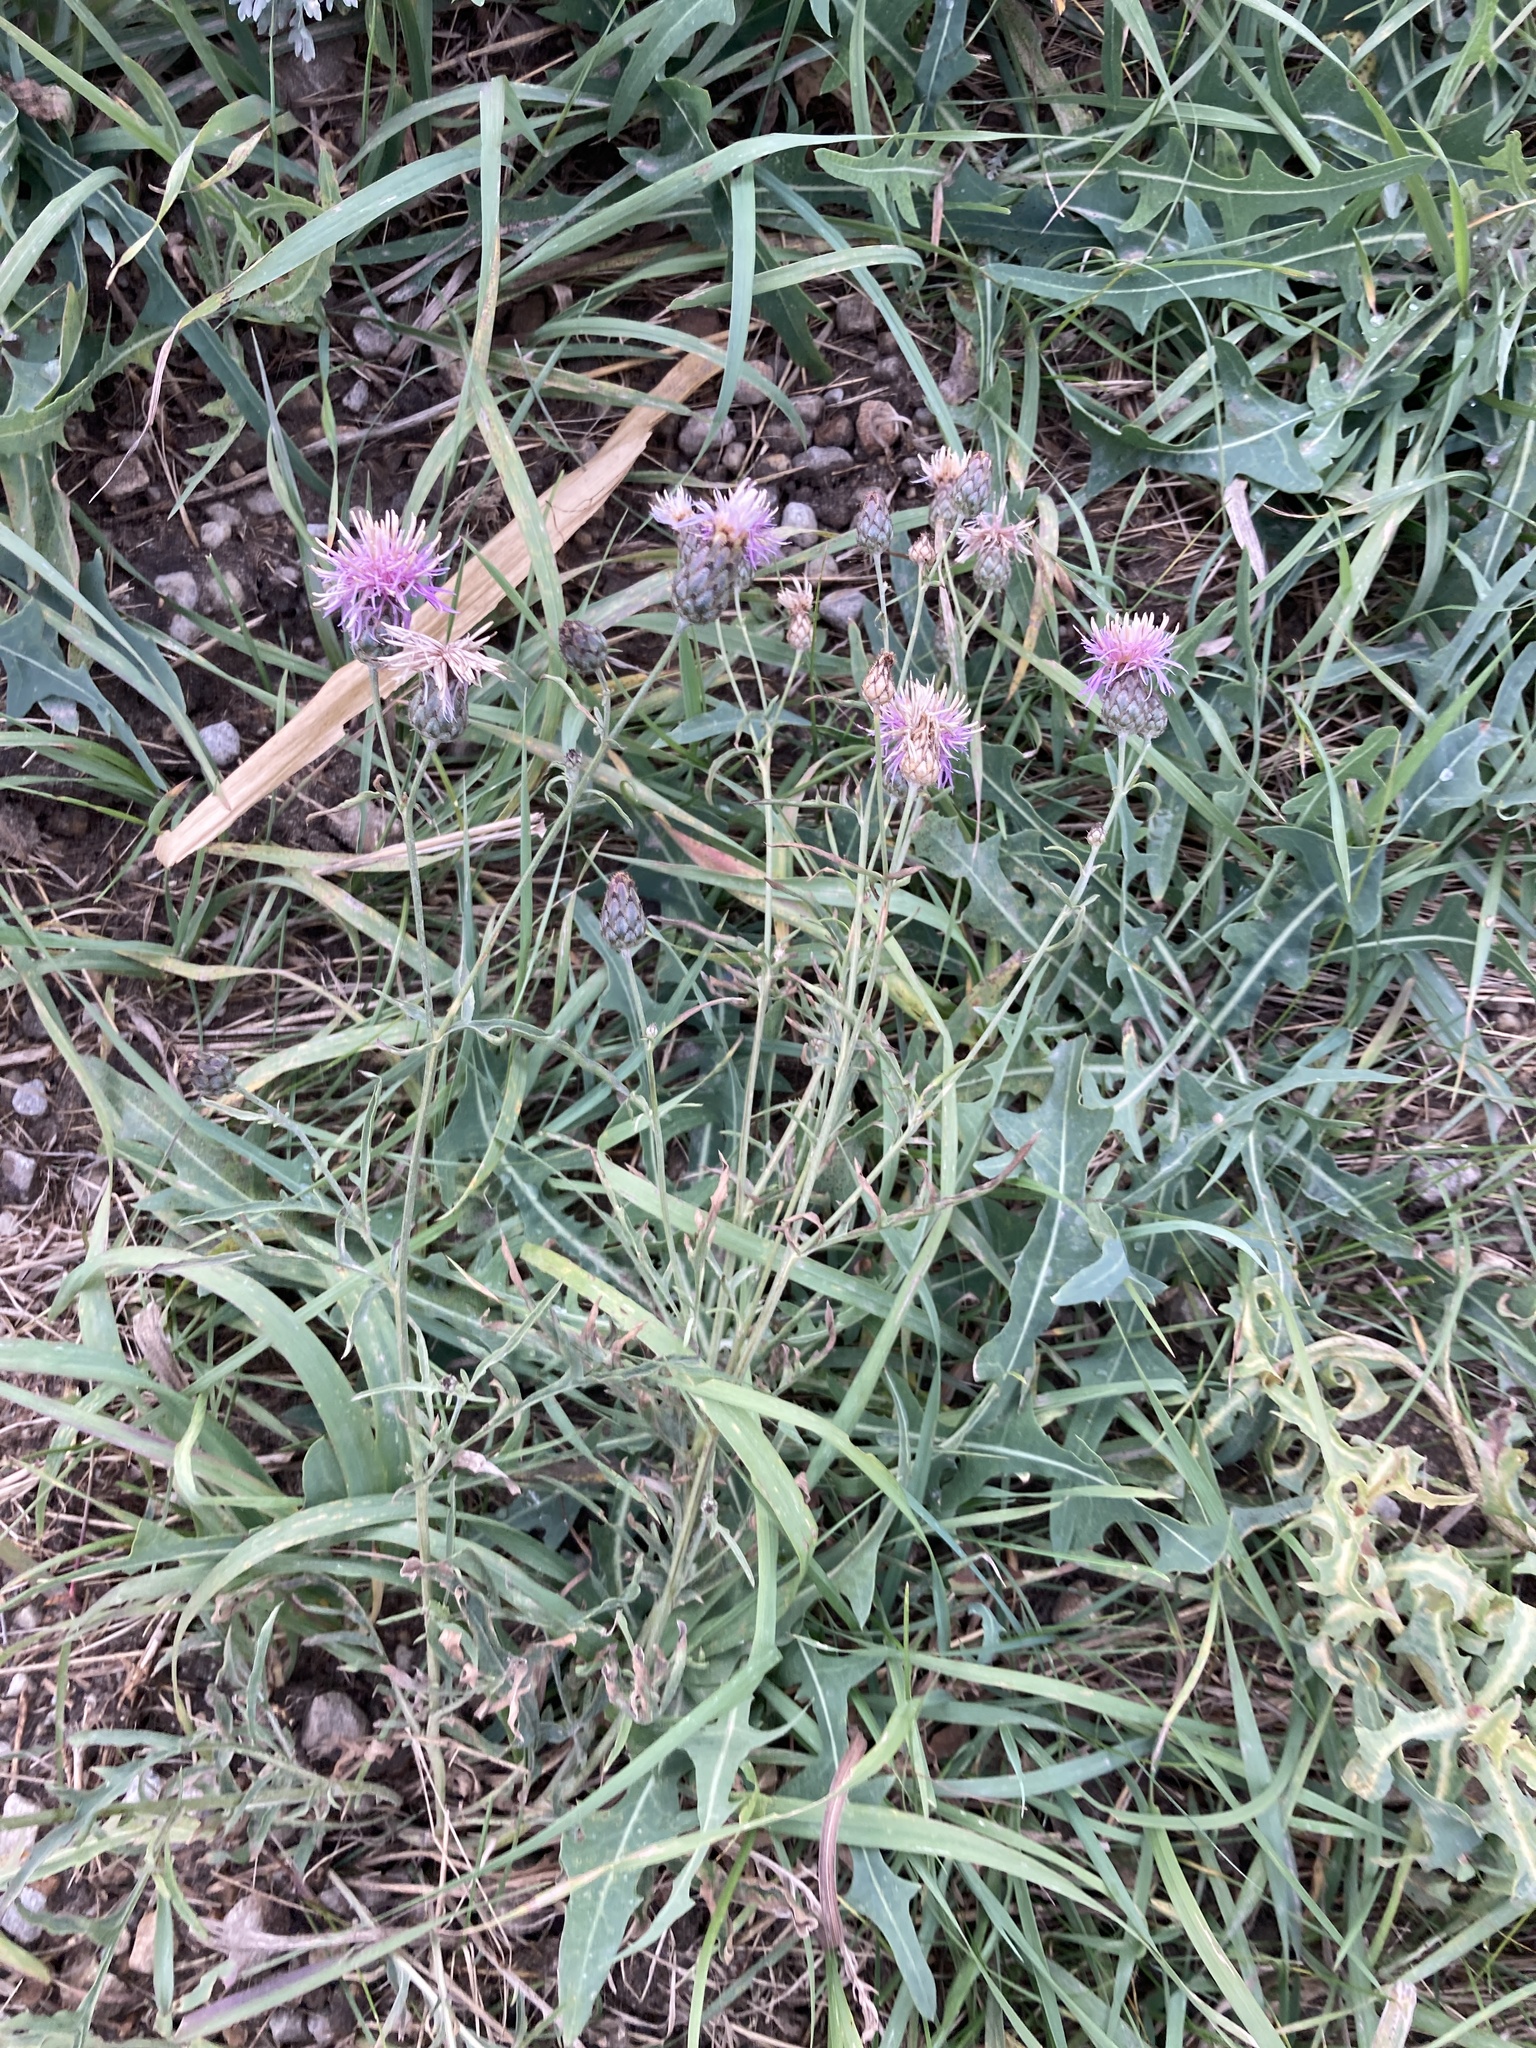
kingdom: Plantae
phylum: Tracheophyta
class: Magnoliopsida
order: Asterales
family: Asteraceae
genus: Centaurea
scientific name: Centaurea scabiosa
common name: Greater knapweed
